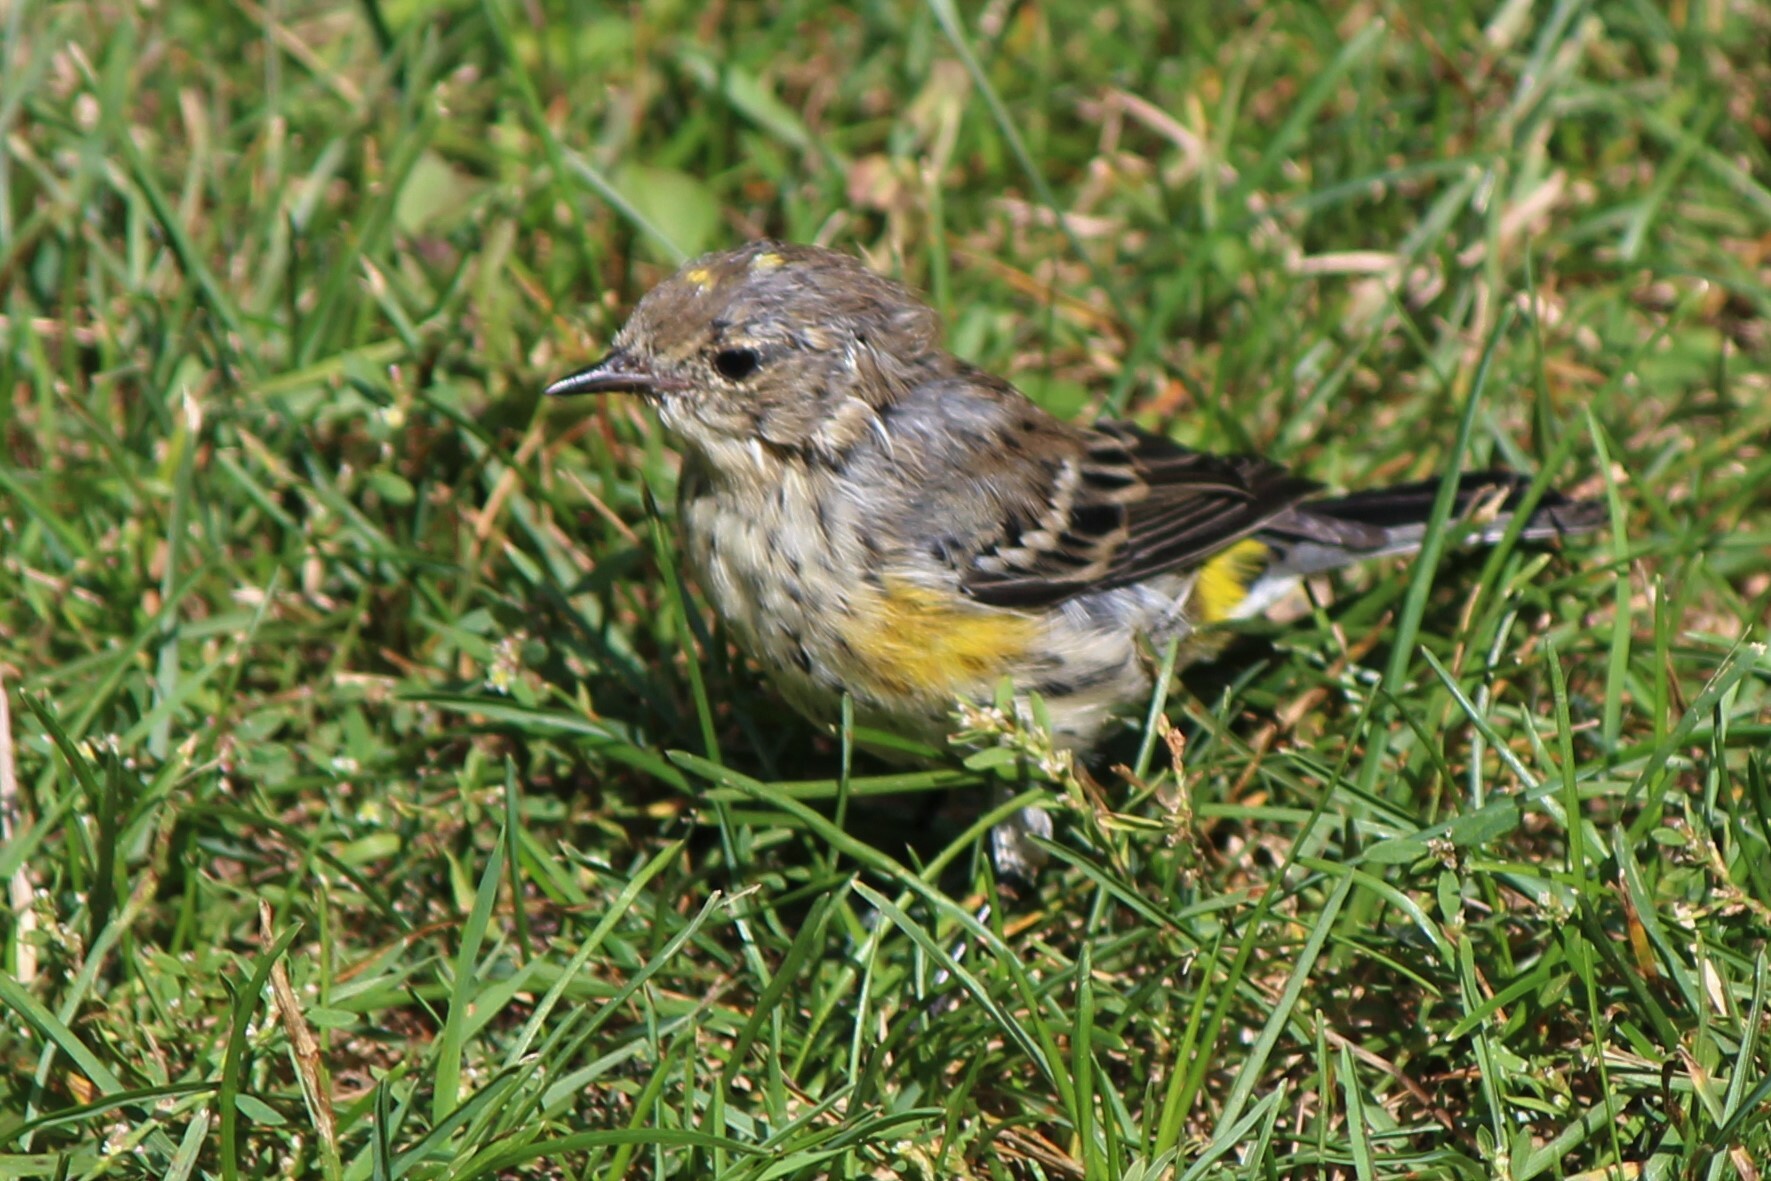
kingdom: Animalia
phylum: Chordata
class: Aves
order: Passeriformes
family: Parulidae
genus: Setophaga
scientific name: Setophaga coronata
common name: Myrtle warbler
